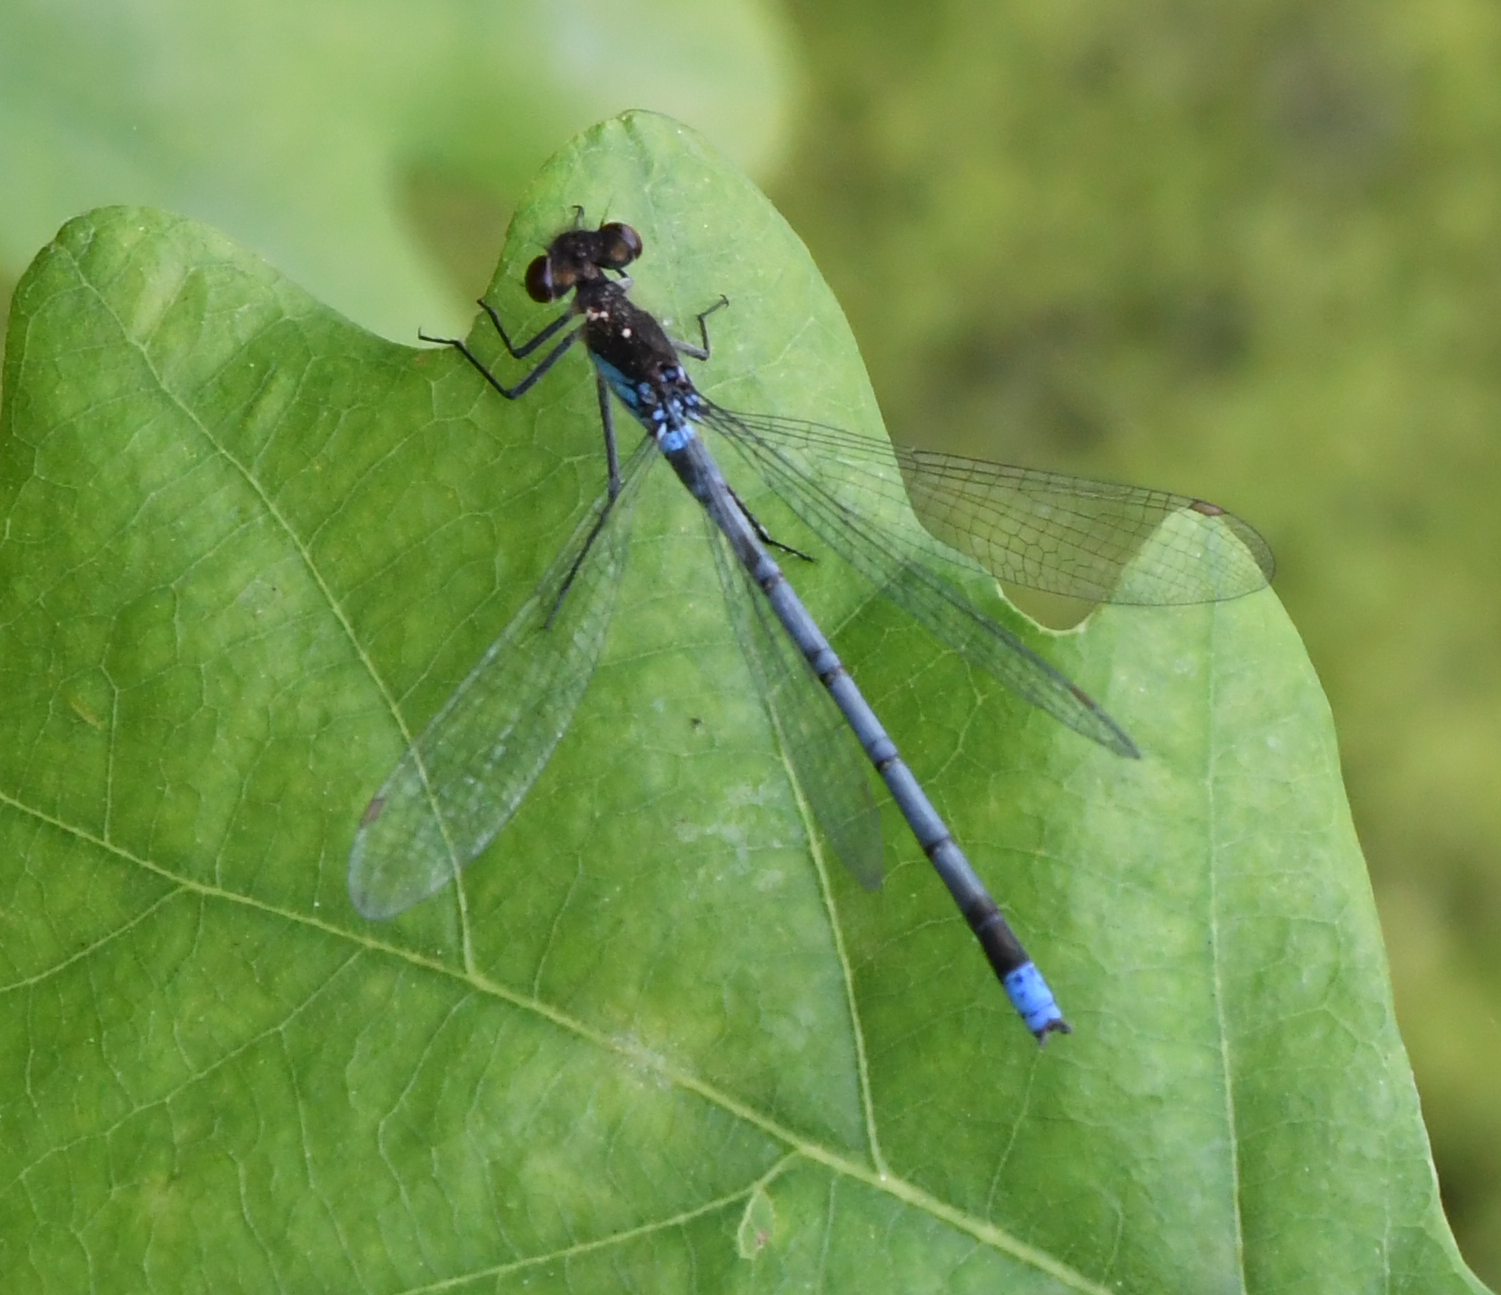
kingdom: Animalia
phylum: Arthropoda
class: Insecta
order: Odonata
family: Coenagrionidae
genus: Erythromma
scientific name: Erythromma najas
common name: Red-eyed damselfly
